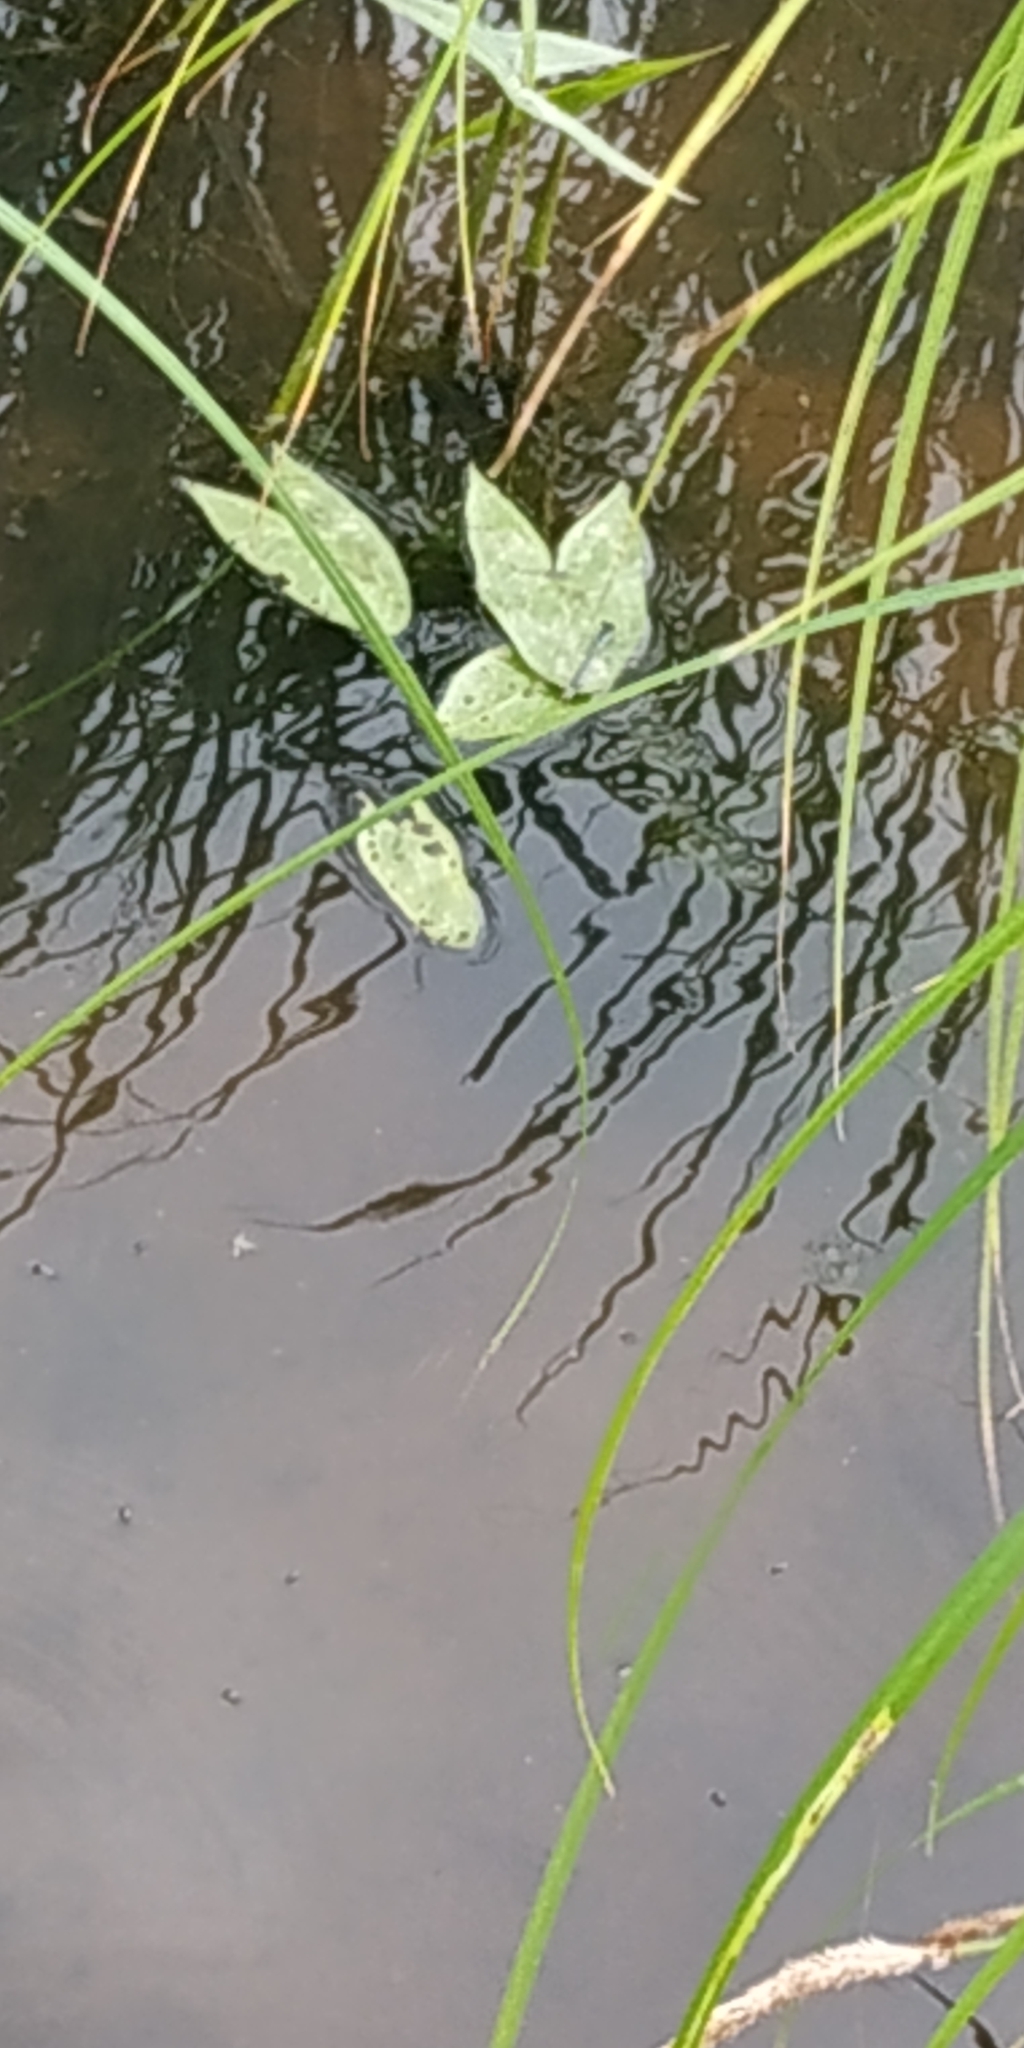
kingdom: Plantae
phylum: Tracheophyta
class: Liliopsida
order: Alismatales
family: Alismataceae
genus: Sagittaria
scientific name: Sagittaria sagittifolia
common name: Arrowhead
